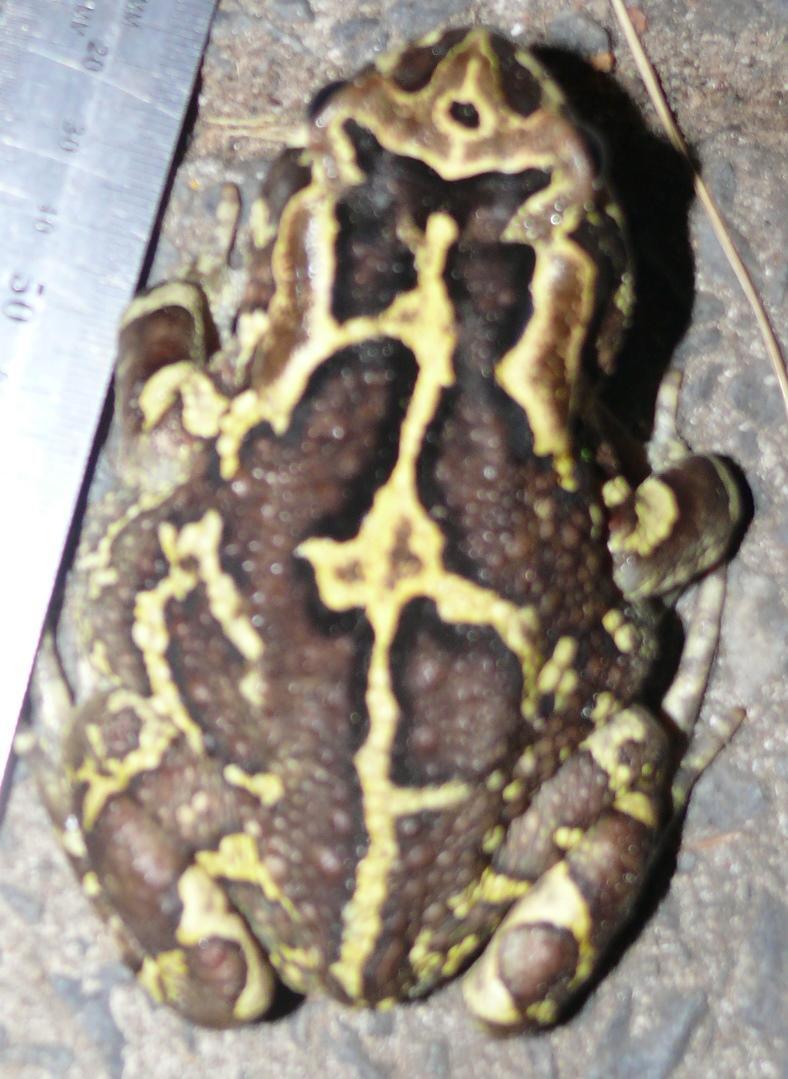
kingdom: Animalia
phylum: Chordata
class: Amphibia
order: Anura
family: Bufonidae
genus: Sclerophrys
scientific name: Sclerophrys pantherina
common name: Panther toad
